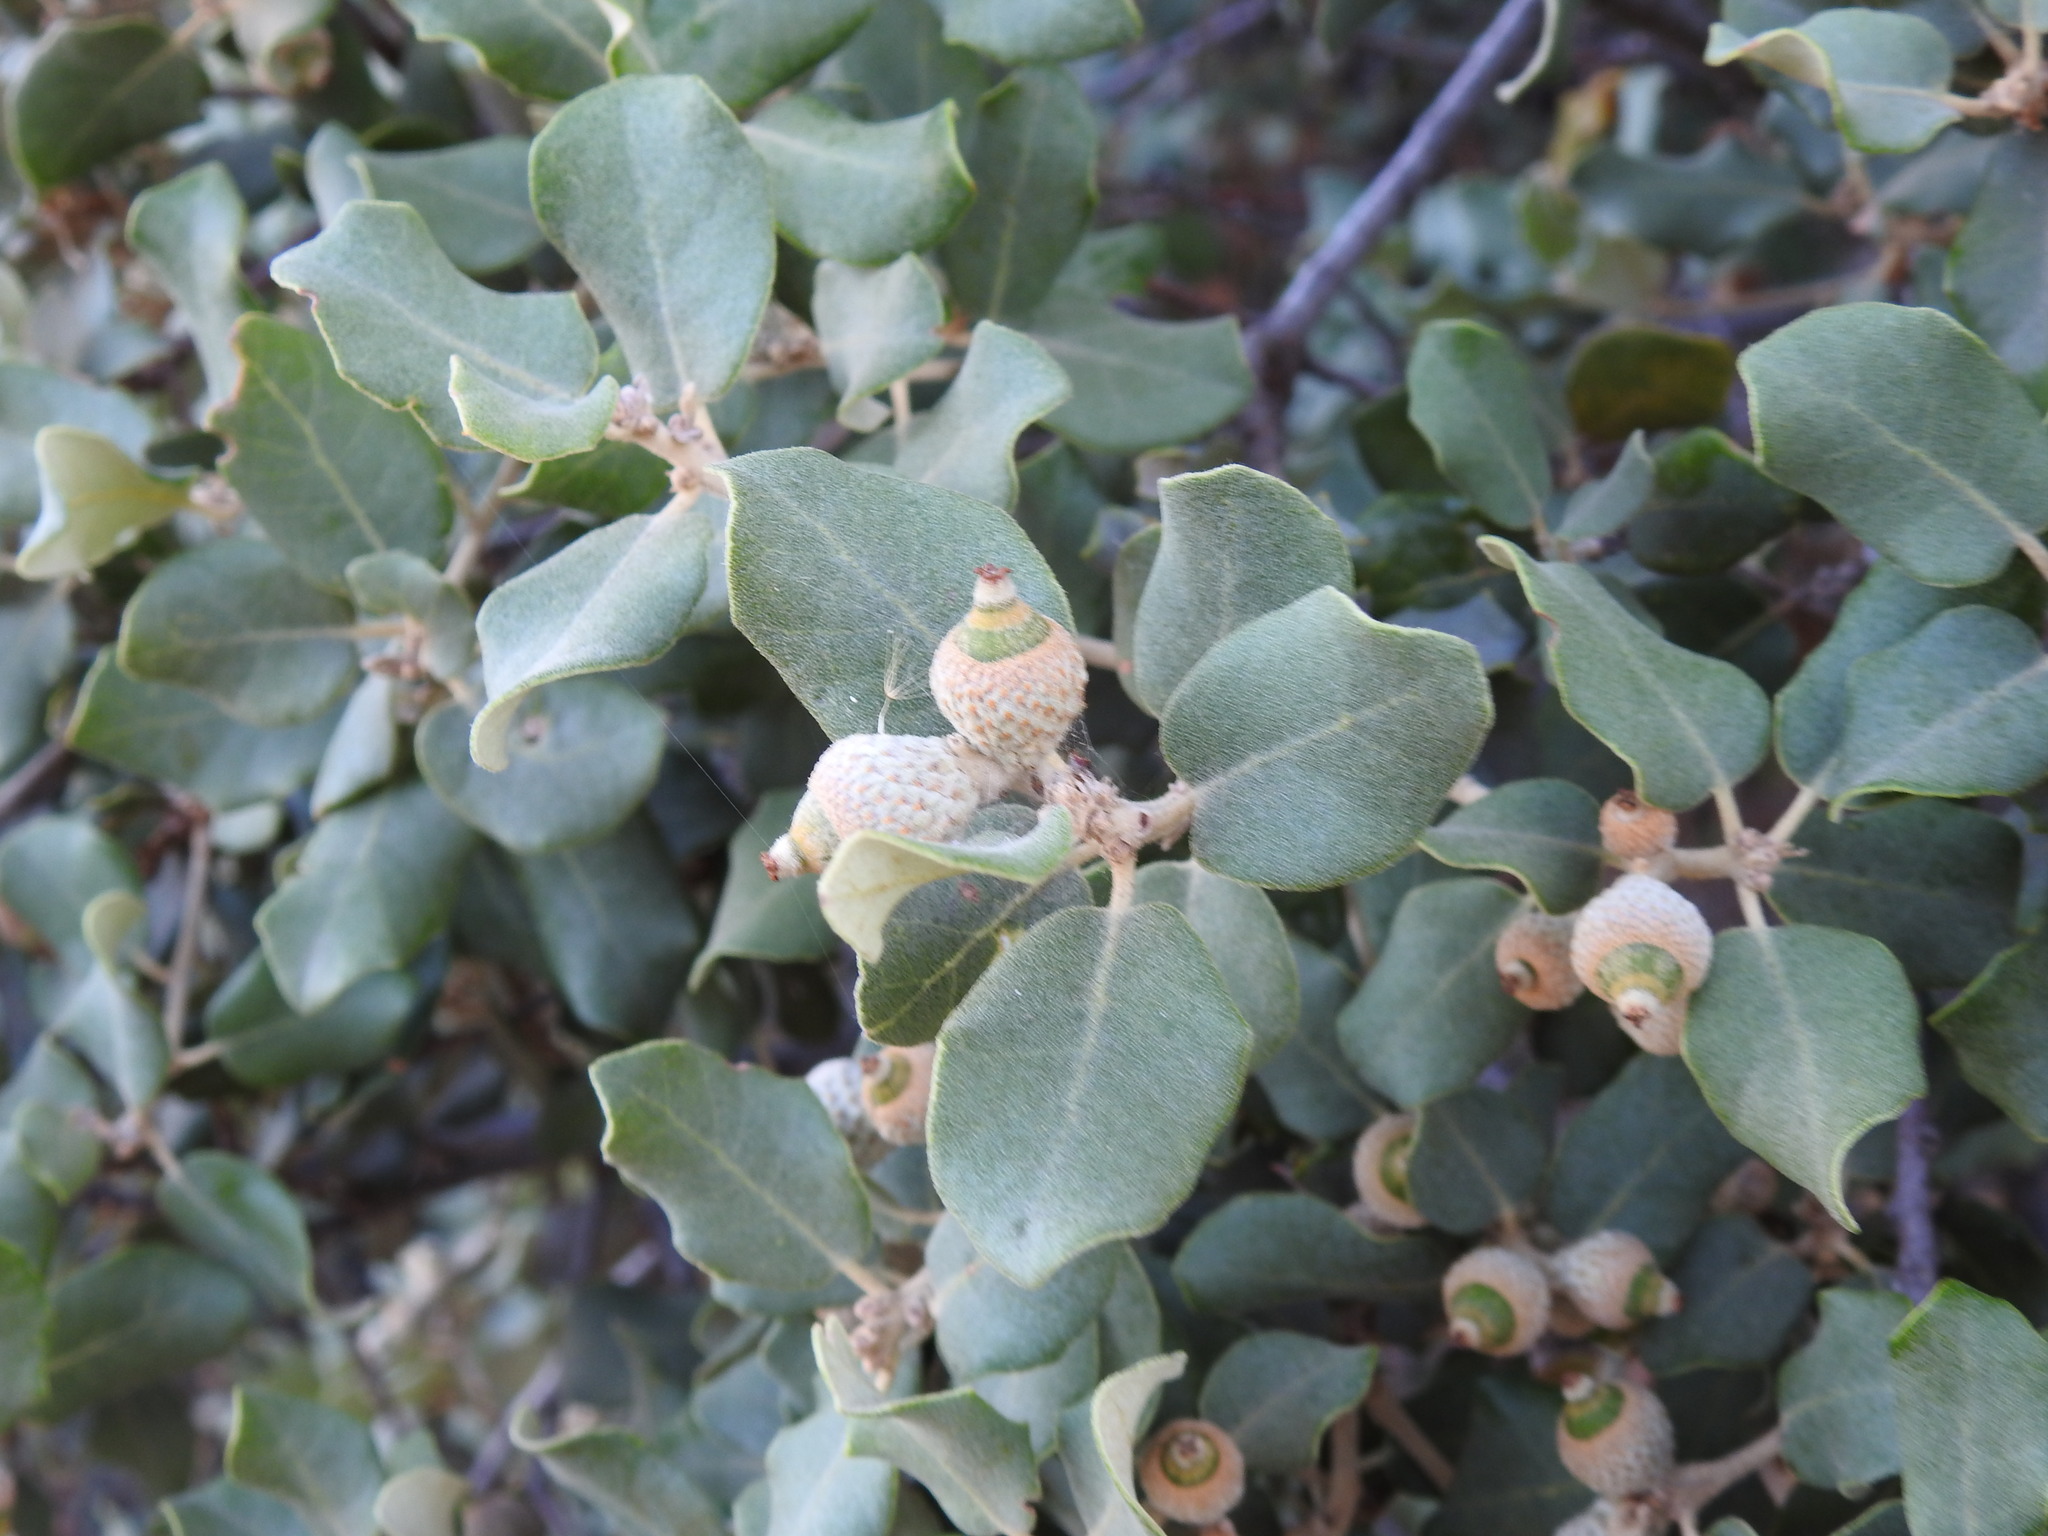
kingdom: Plantae
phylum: Tracheophyta
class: Magnoliopsida
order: Fagales
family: Fagaceae
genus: Quercus
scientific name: Quercus rotundifolia
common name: Holm oak
